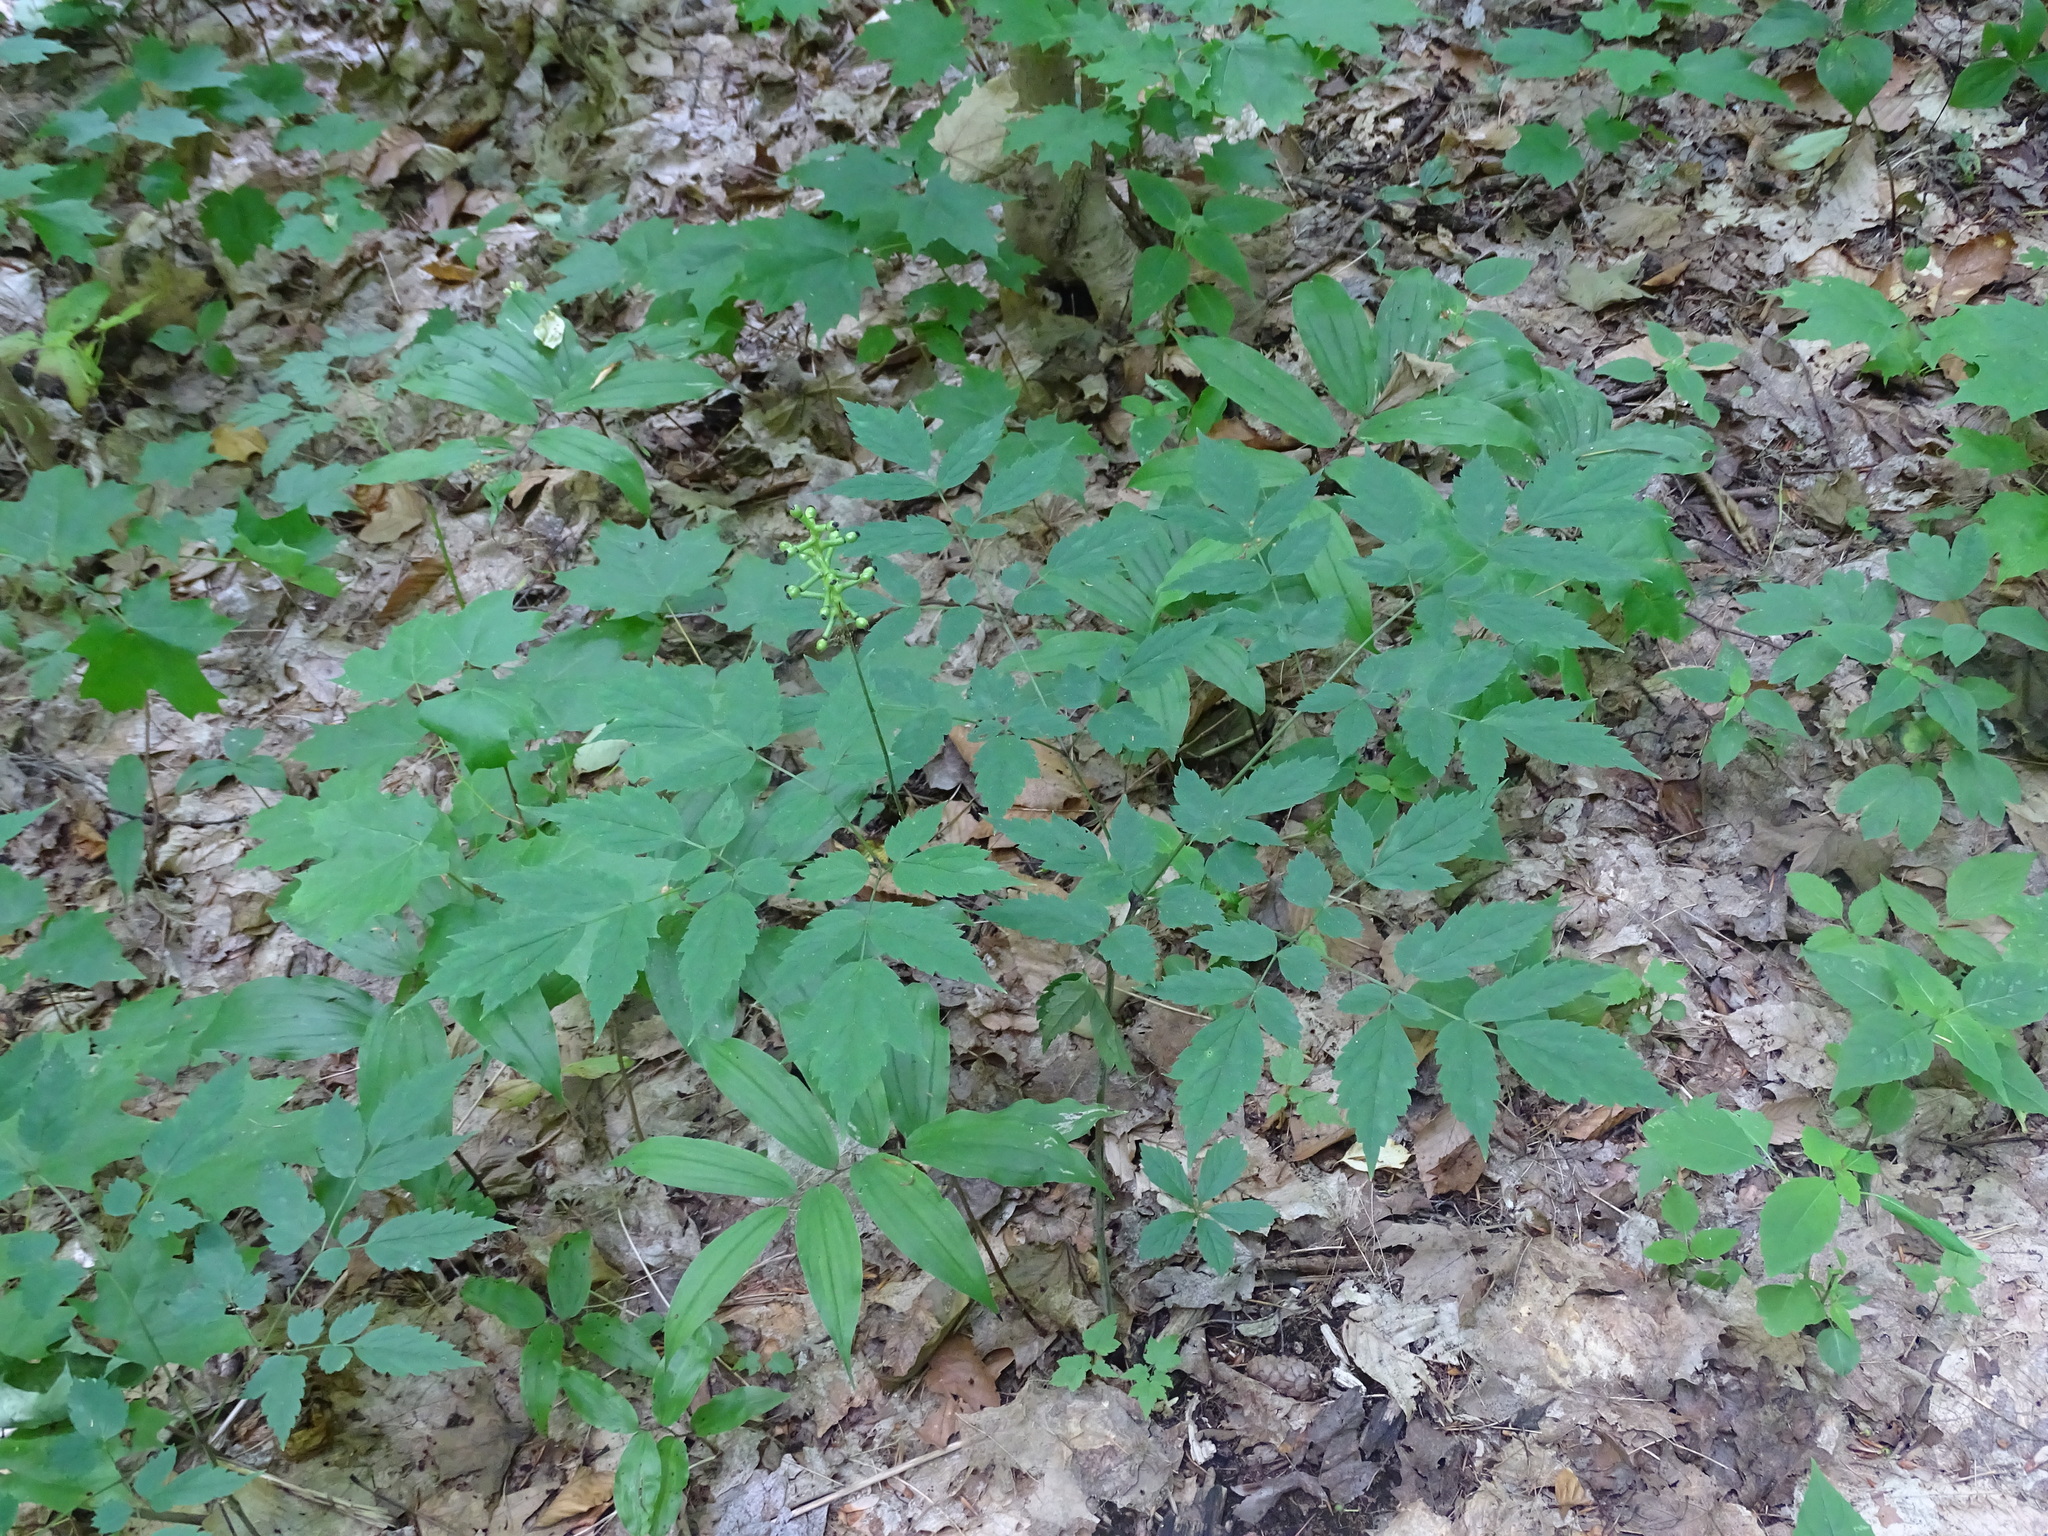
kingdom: Plantae
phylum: Tracheophyta
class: Magnoliopsida
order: Ranunculales
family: Ranunculaceae
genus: Actaea
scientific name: Actaea pachypoda
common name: Doll's-eyes
